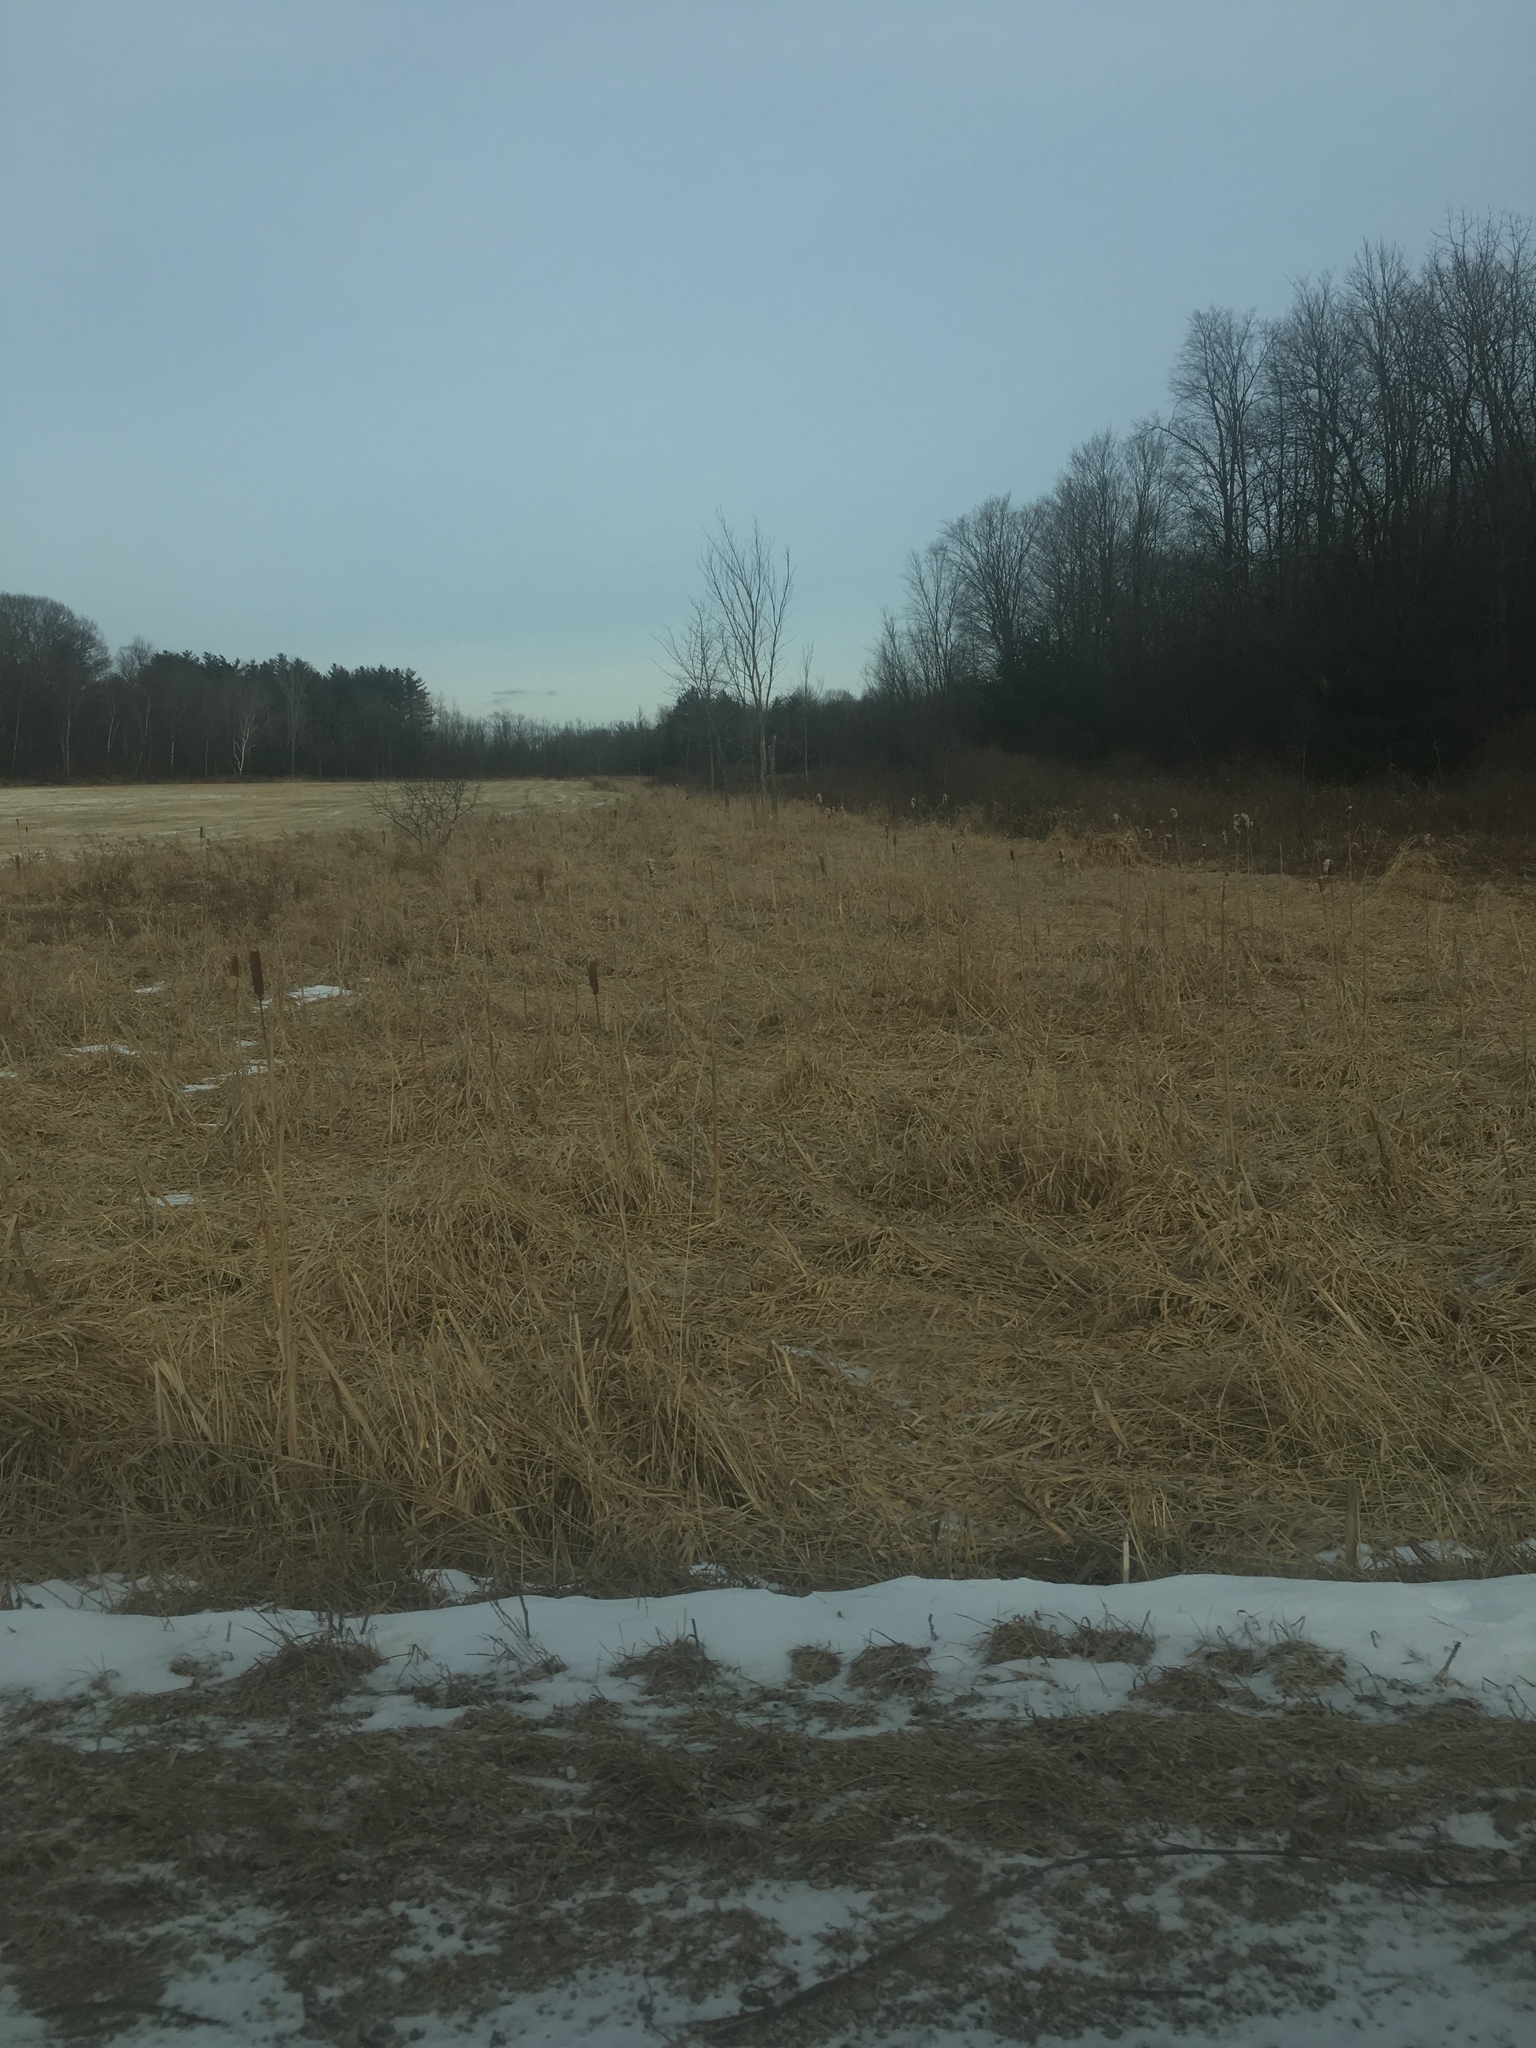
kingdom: Plantae
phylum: Tracheophyta
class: Liliopsida
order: Poales
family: Typhaceae
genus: Typha
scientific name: Typha
